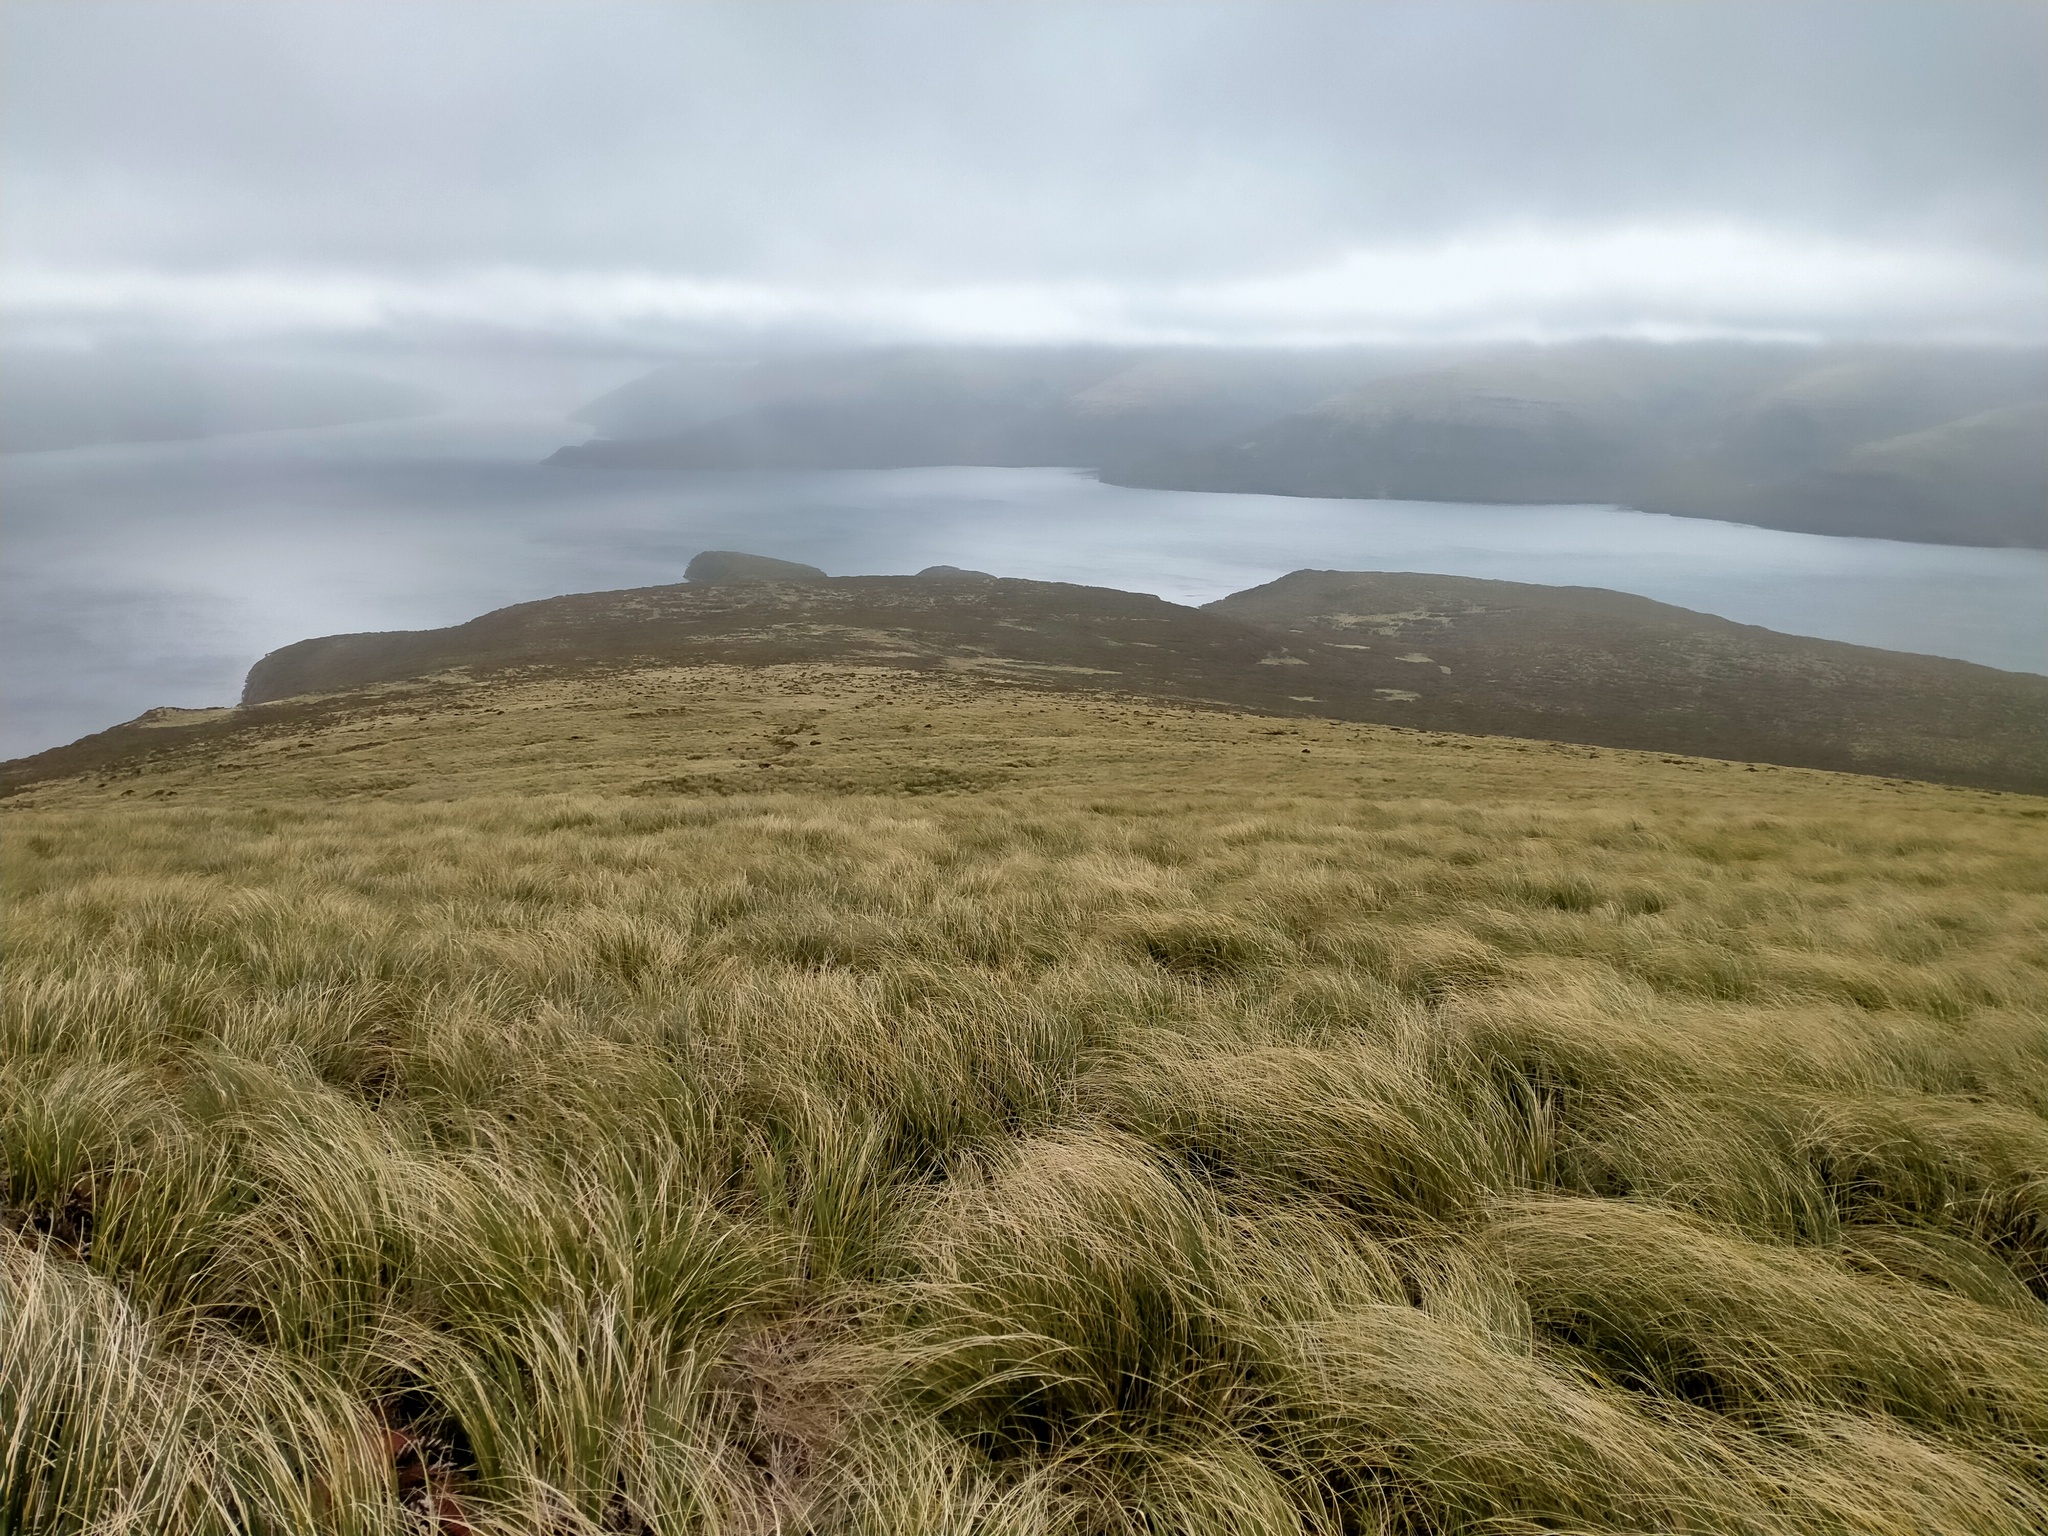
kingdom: Plantae
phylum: Tracheophyta
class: Liliopsida
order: Poales
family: Poaceae
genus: Chionochloa
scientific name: Chionochloa antarctica
